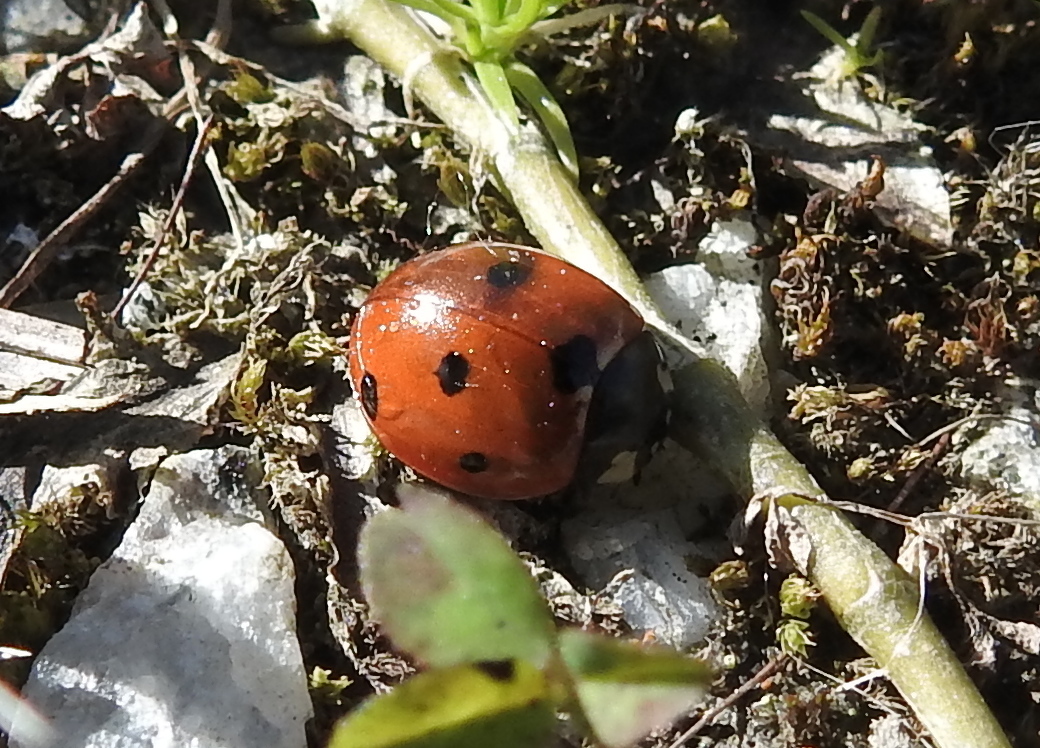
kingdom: Animalia
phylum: Arthropoda
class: Insecta
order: Coleoptera
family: Coccinellidae
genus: Coccinella
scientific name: Coccinella septempunctata
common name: Sevenspotted lady beetle
